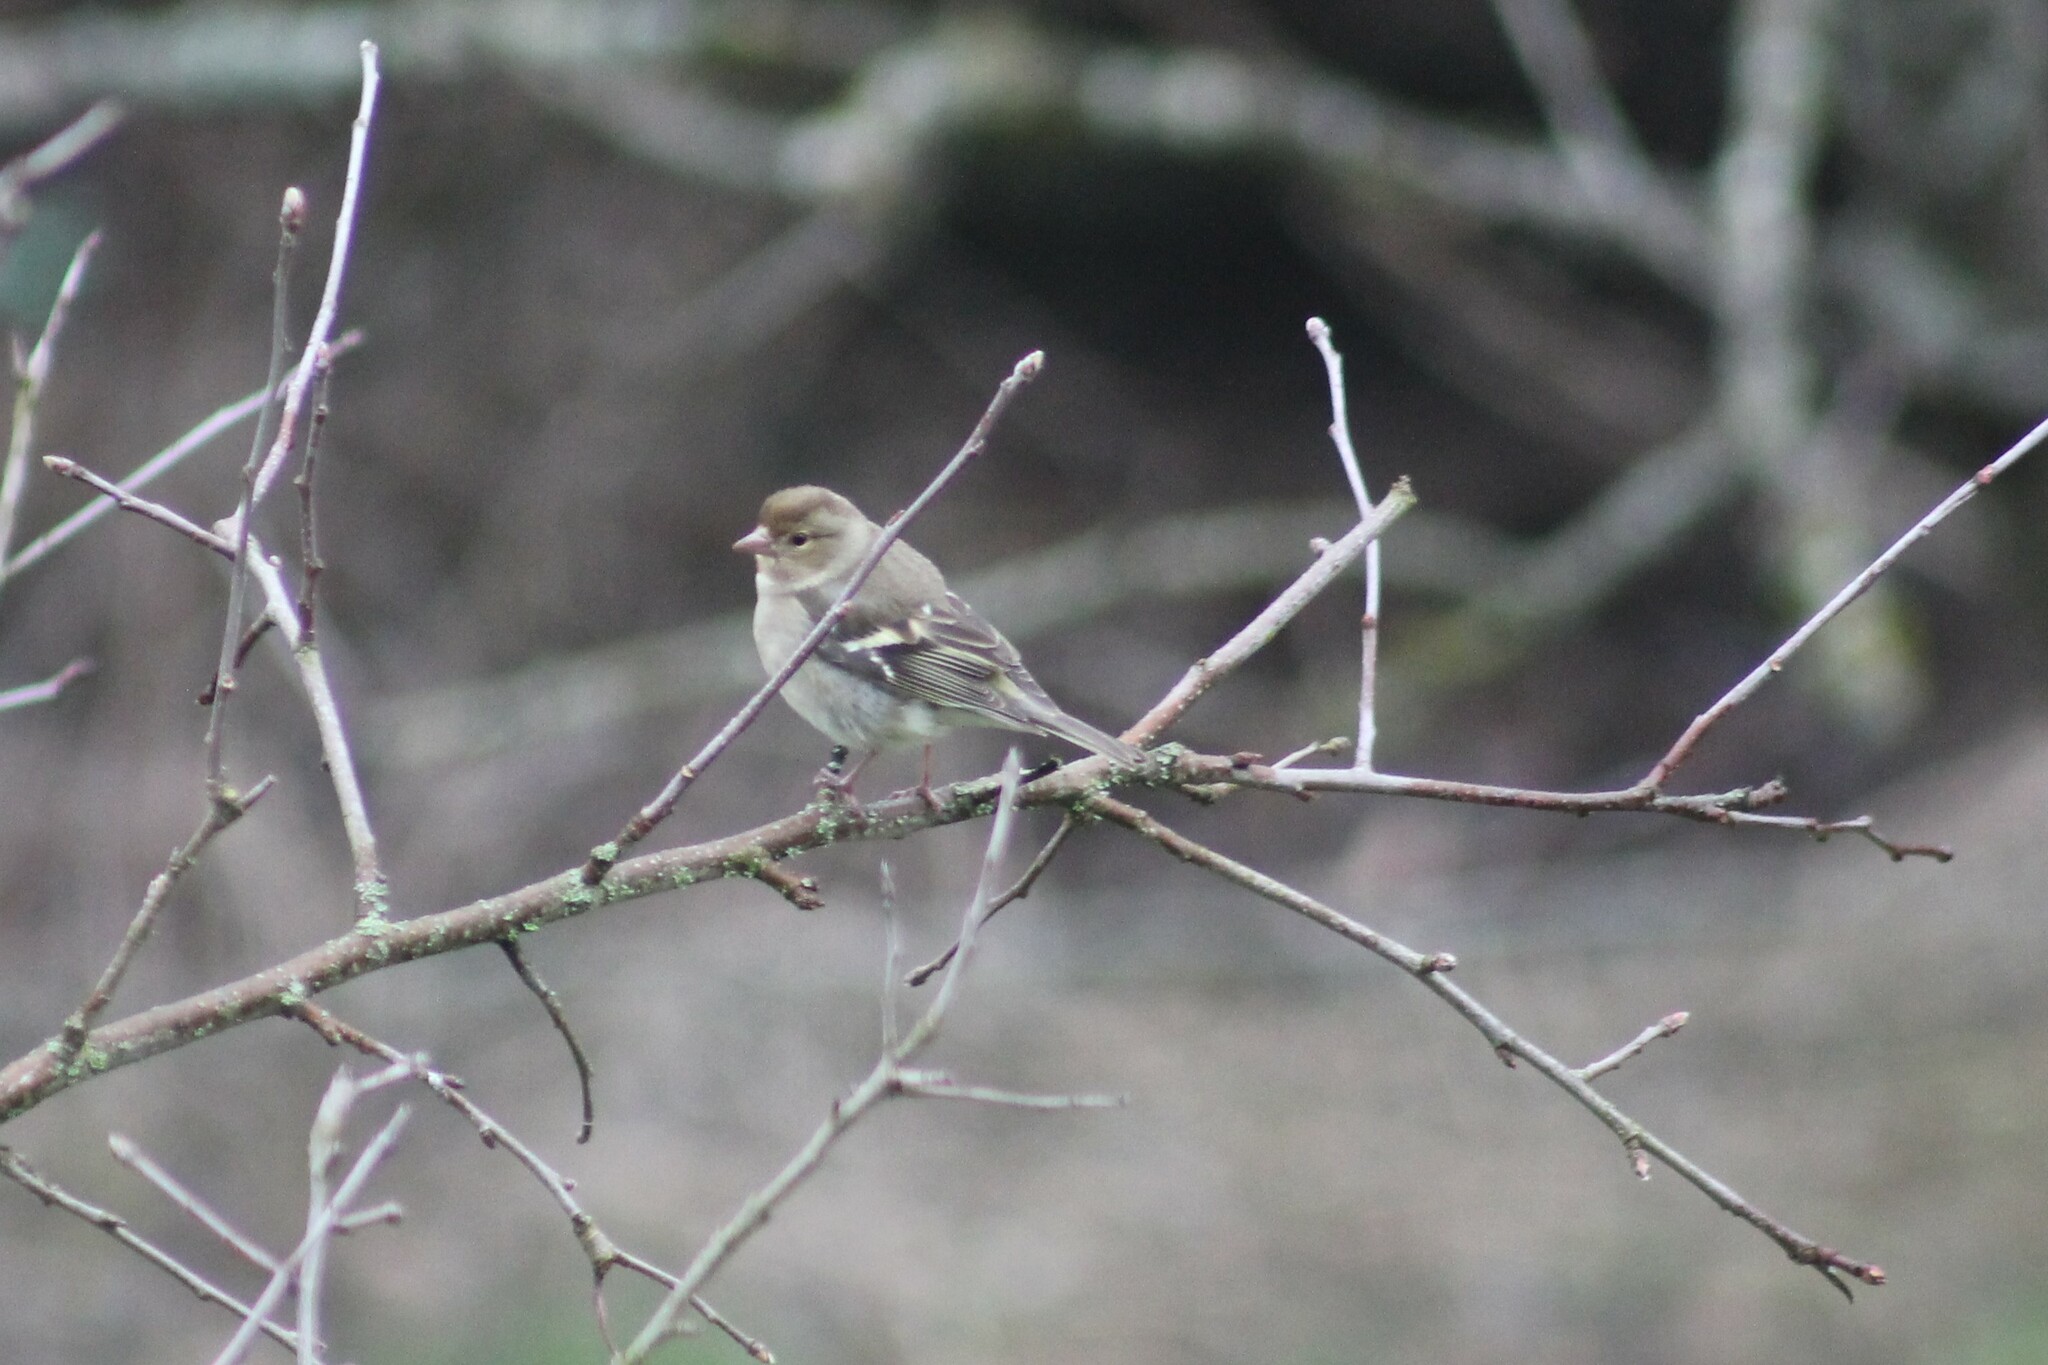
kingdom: Animalia
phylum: Chordata
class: Aves
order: Passeriformes
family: Fringillidae
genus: Fringilla
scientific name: Fringilla coelebs
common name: Common chaffinch
